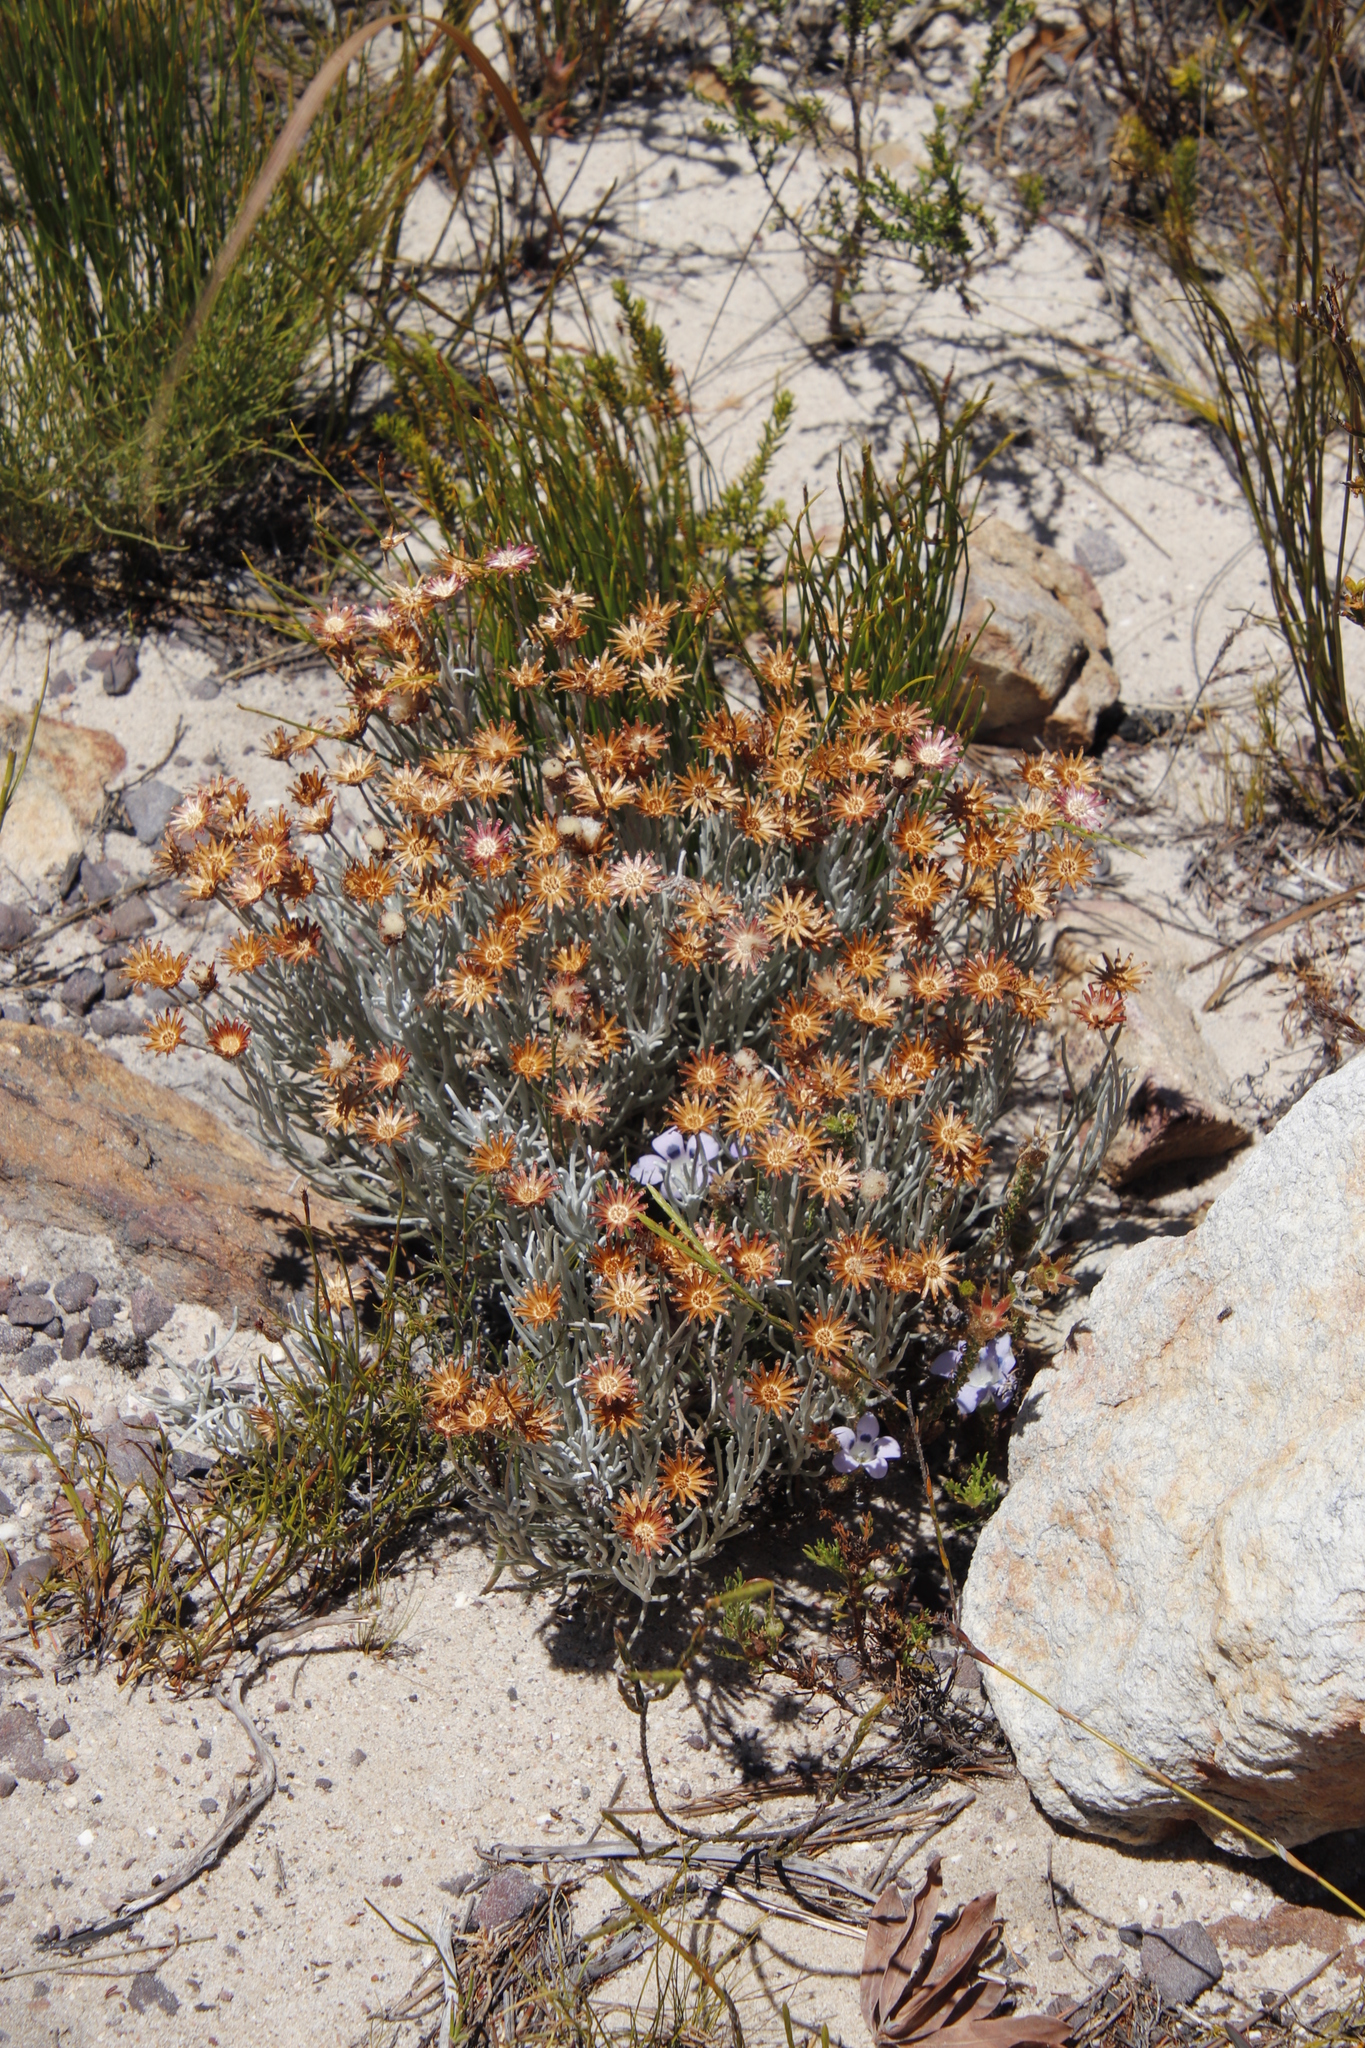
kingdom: Plantae
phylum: Tracheophyta
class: Magnoliopsida
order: Asterales
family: Asteraceae
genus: Syncarpha
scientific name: Syncarpha gnaphaloides
